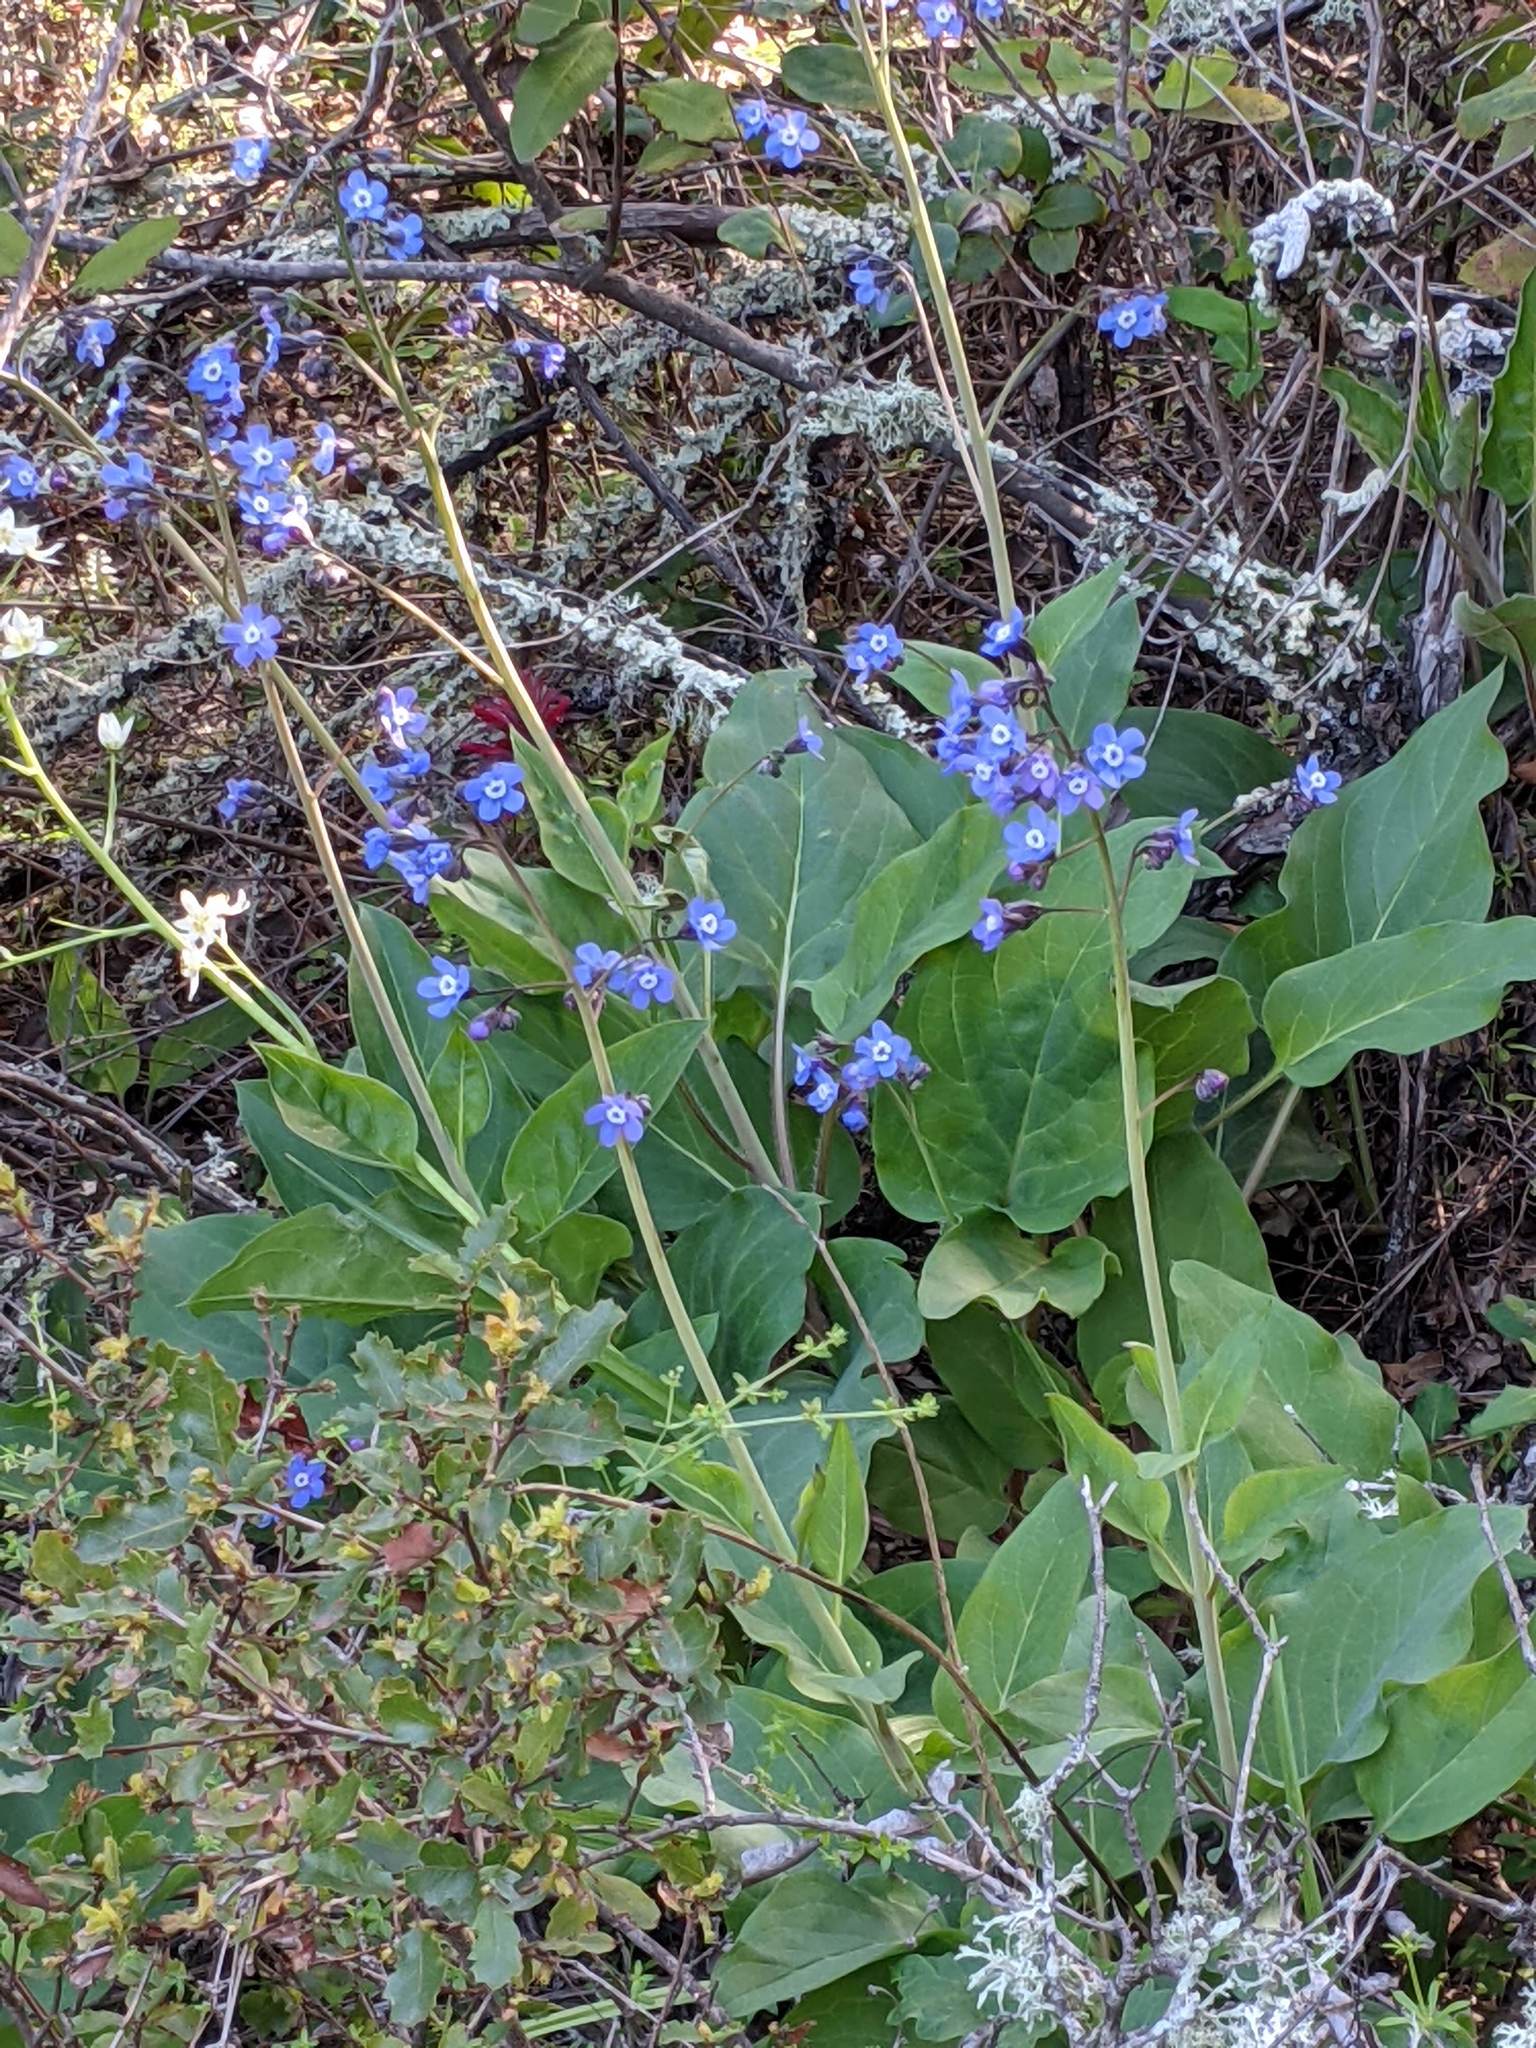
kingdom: Plantae
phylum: Tracheophyta
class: Magnoliopsida
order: Boraginales
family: Boraginaceae
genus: Adelinia
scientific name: Adelinia grande
